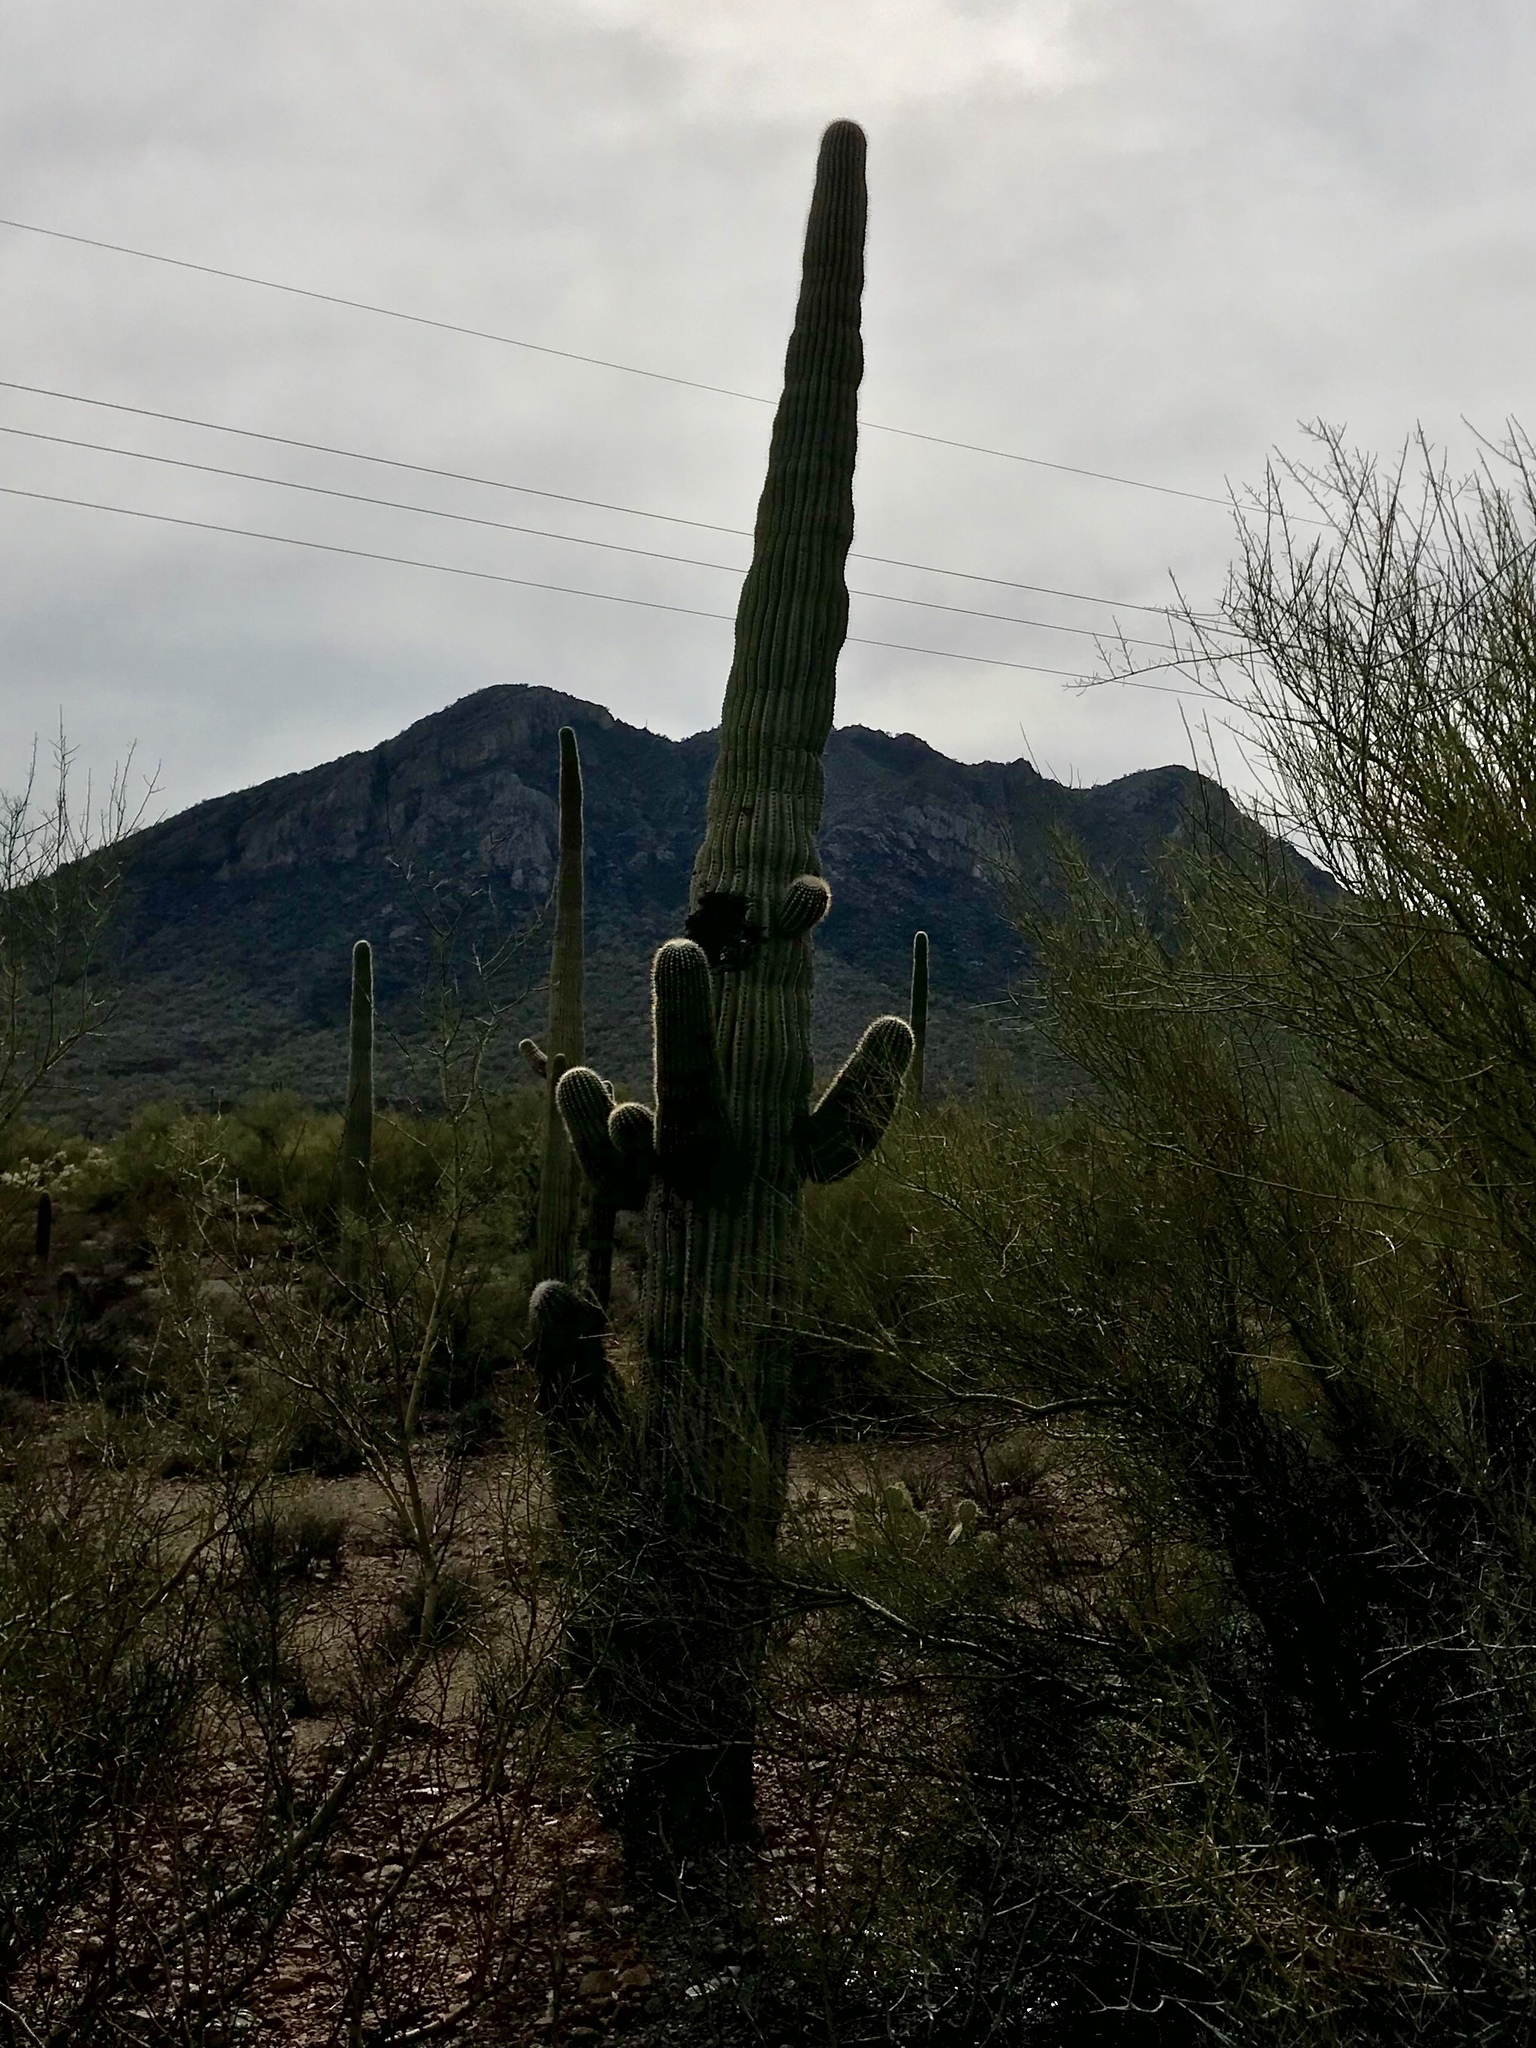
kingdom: Plantae
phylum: Tracheophyta
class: Magnoliopsida
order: Caryophyllales
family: Cactaceae
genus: Carnegiea
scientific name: Carnegiea gigantea
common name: Saguaro
